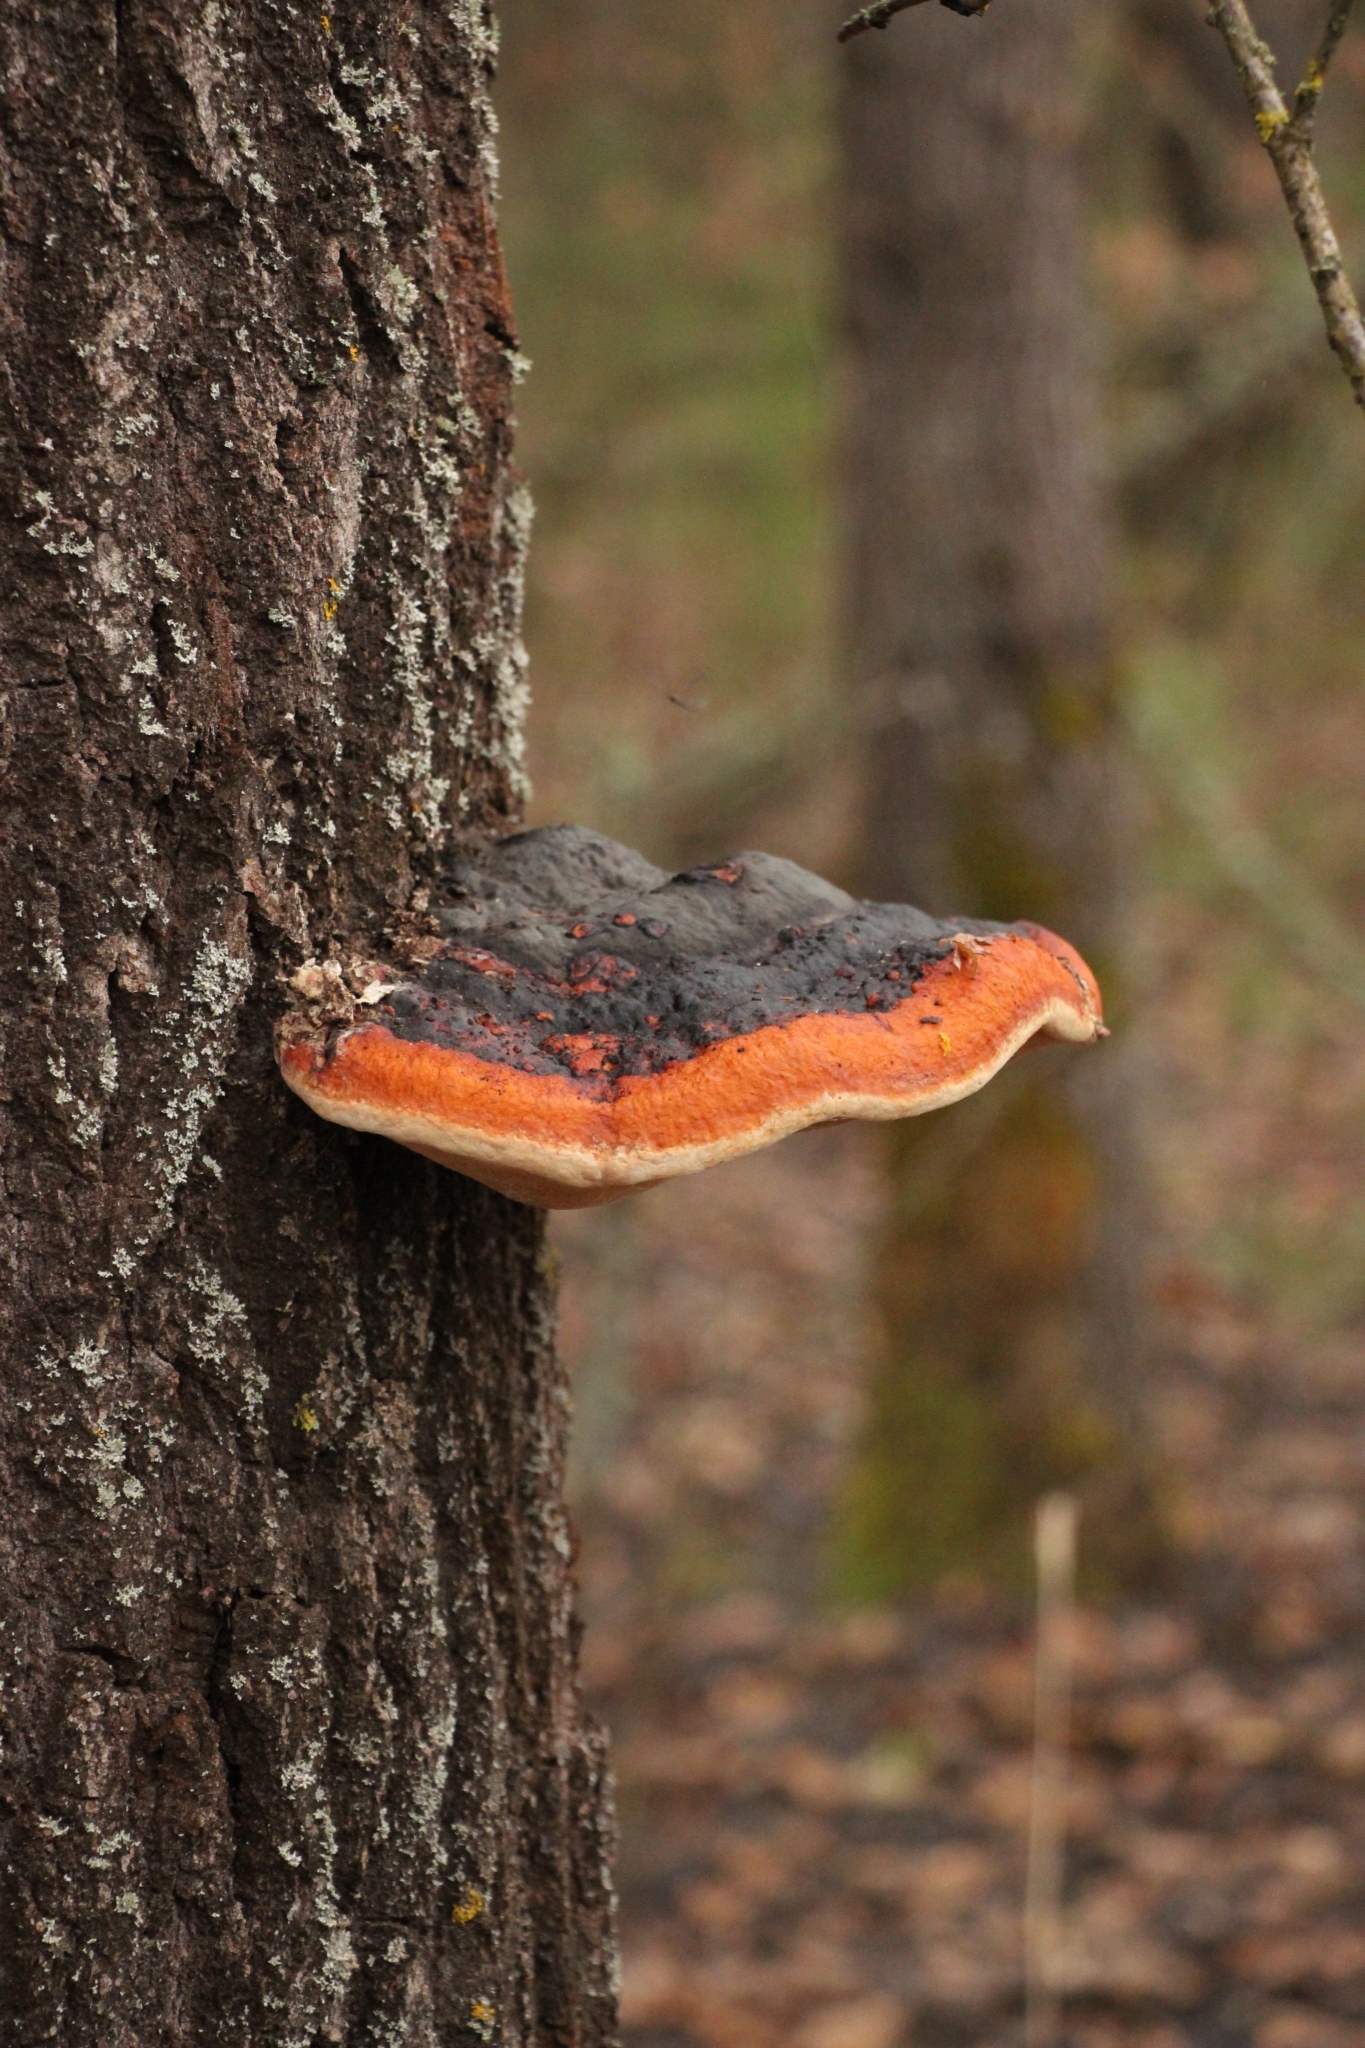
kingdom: Fungi
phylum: Basidiomycota
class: Agaricomycetes
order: Polyporales
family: Fomitopsidaceae
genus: Fomitopsis
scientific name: Fomitopsis pinicola
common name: Red-belted bracket
